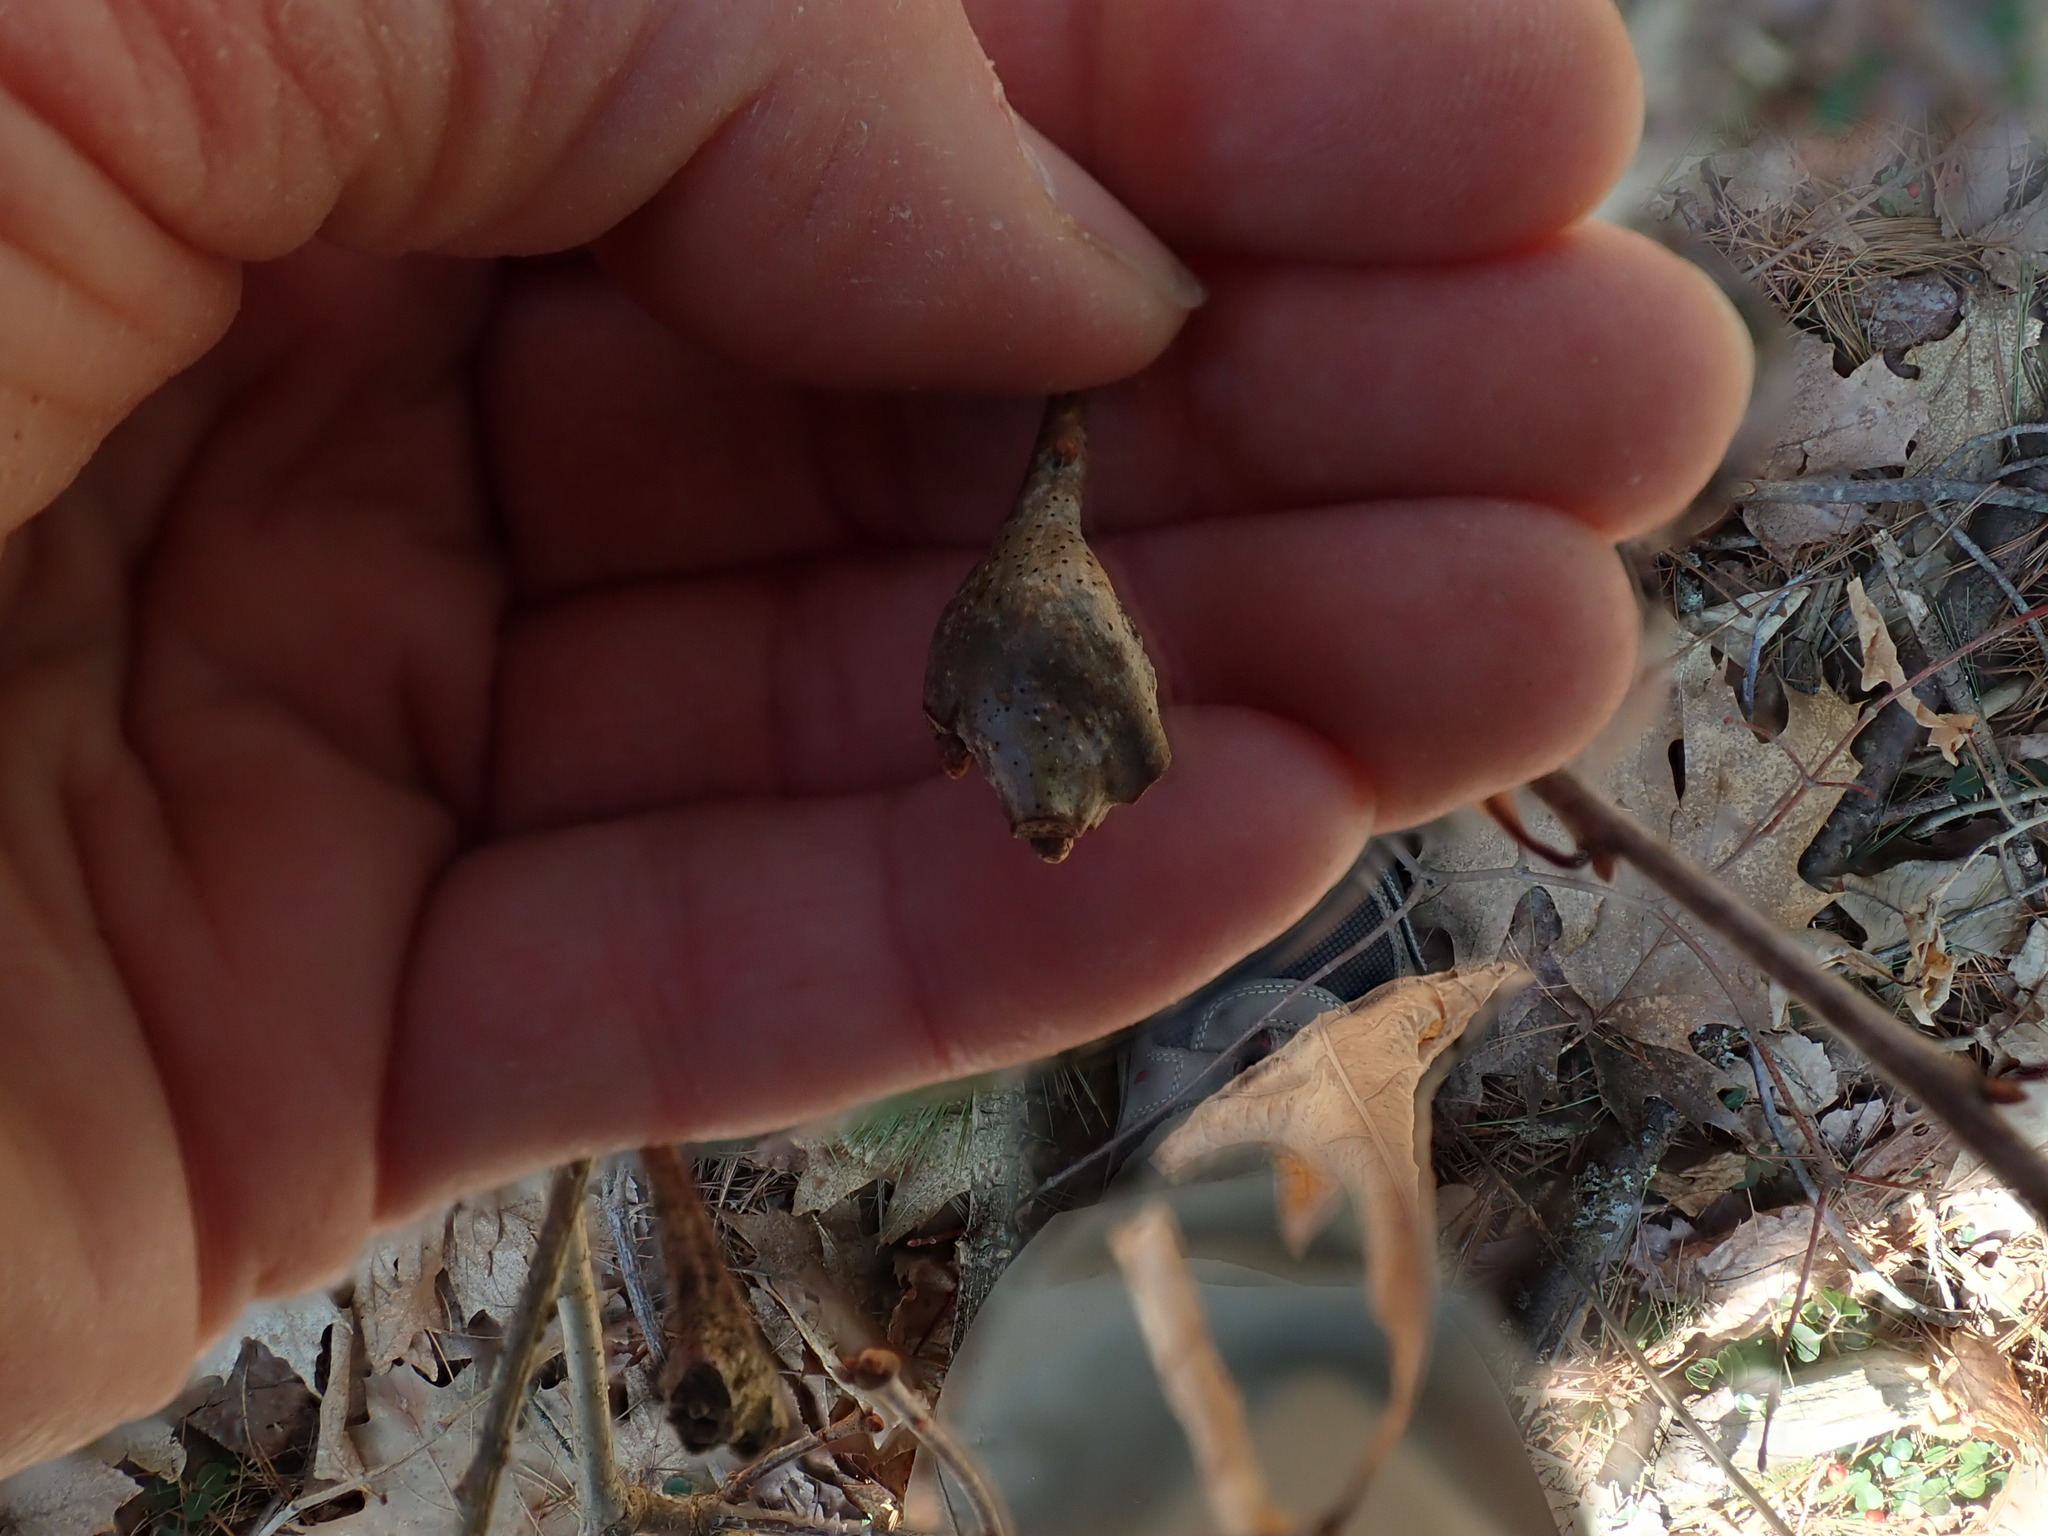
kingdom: Animalia
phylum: Arthropoda
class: Insecta
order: Hymenoptera
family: Cynipidae
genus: Callirhytis
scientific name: Callirhytis clavula
